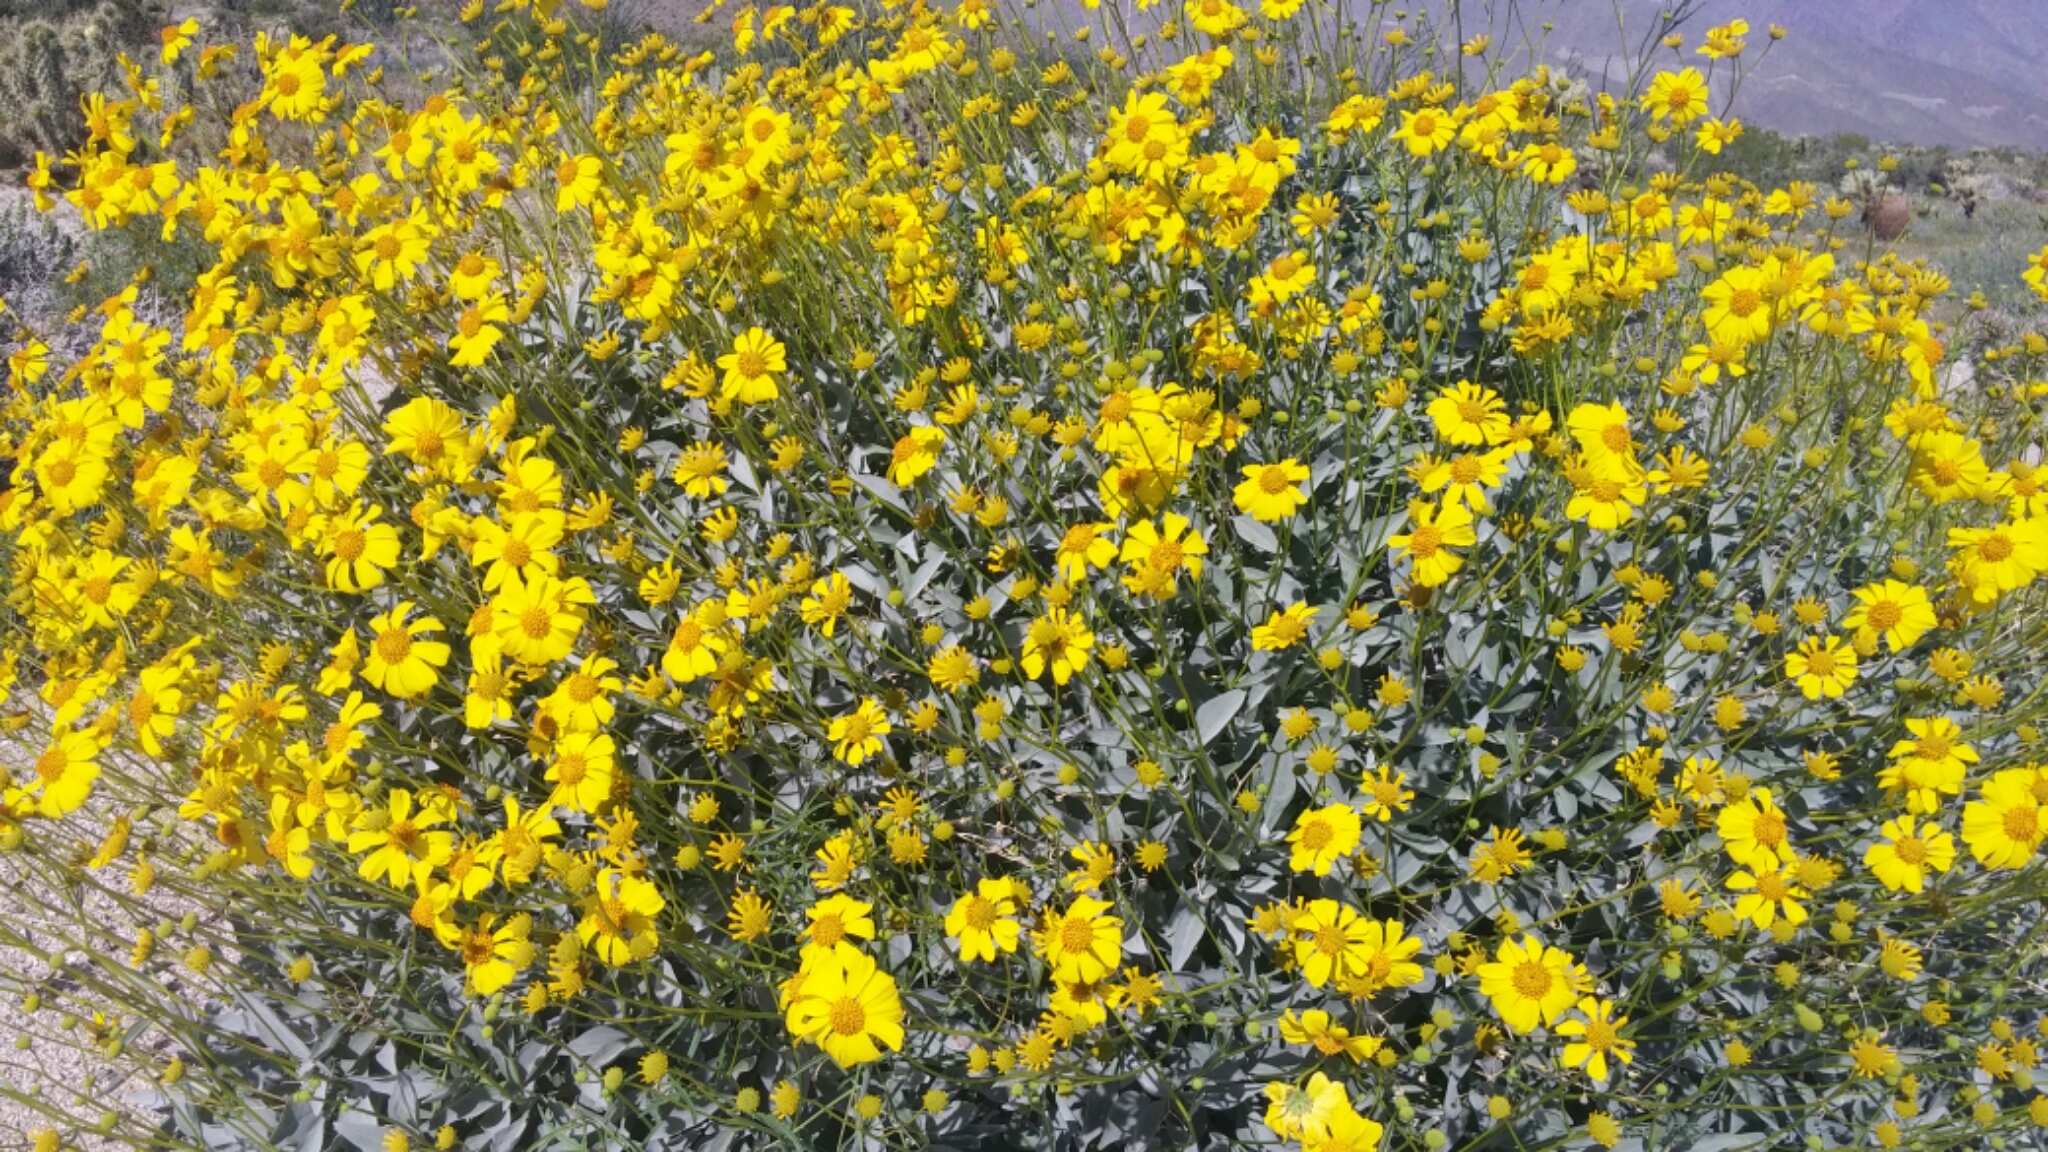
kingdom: Plantae
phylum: Tracheophyta
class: Magnoliopsida
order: Asterales
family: Asteraceae
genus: Encelia
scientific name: Encelia farinosa
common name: Brittlebush
